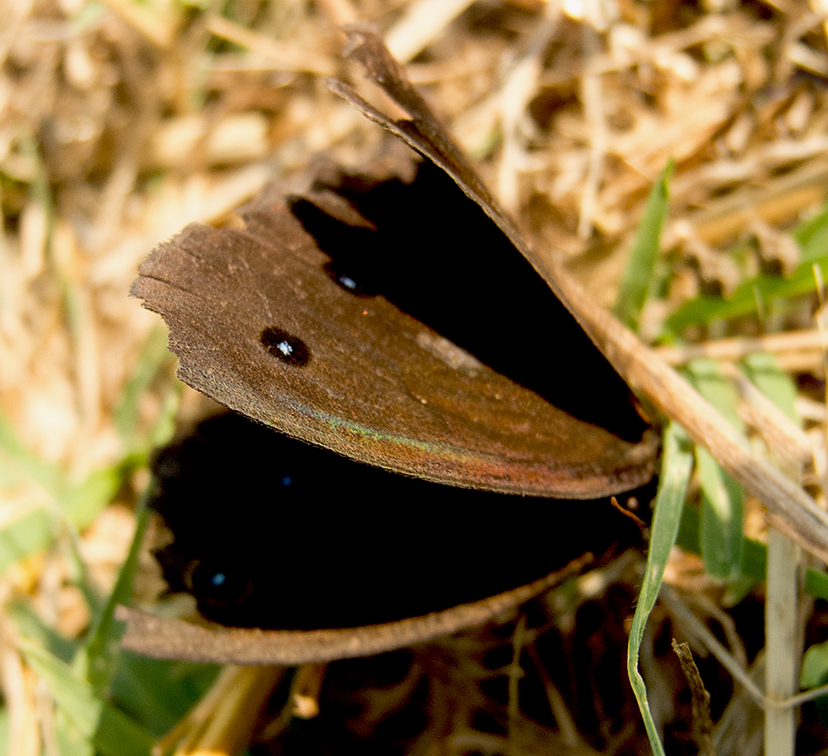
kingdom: Animalia
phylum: Arthropoda
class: Insecta
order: Lepidoptera
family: Nymphalidae
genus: Minois
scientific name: Minois dryas
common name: Dryad
